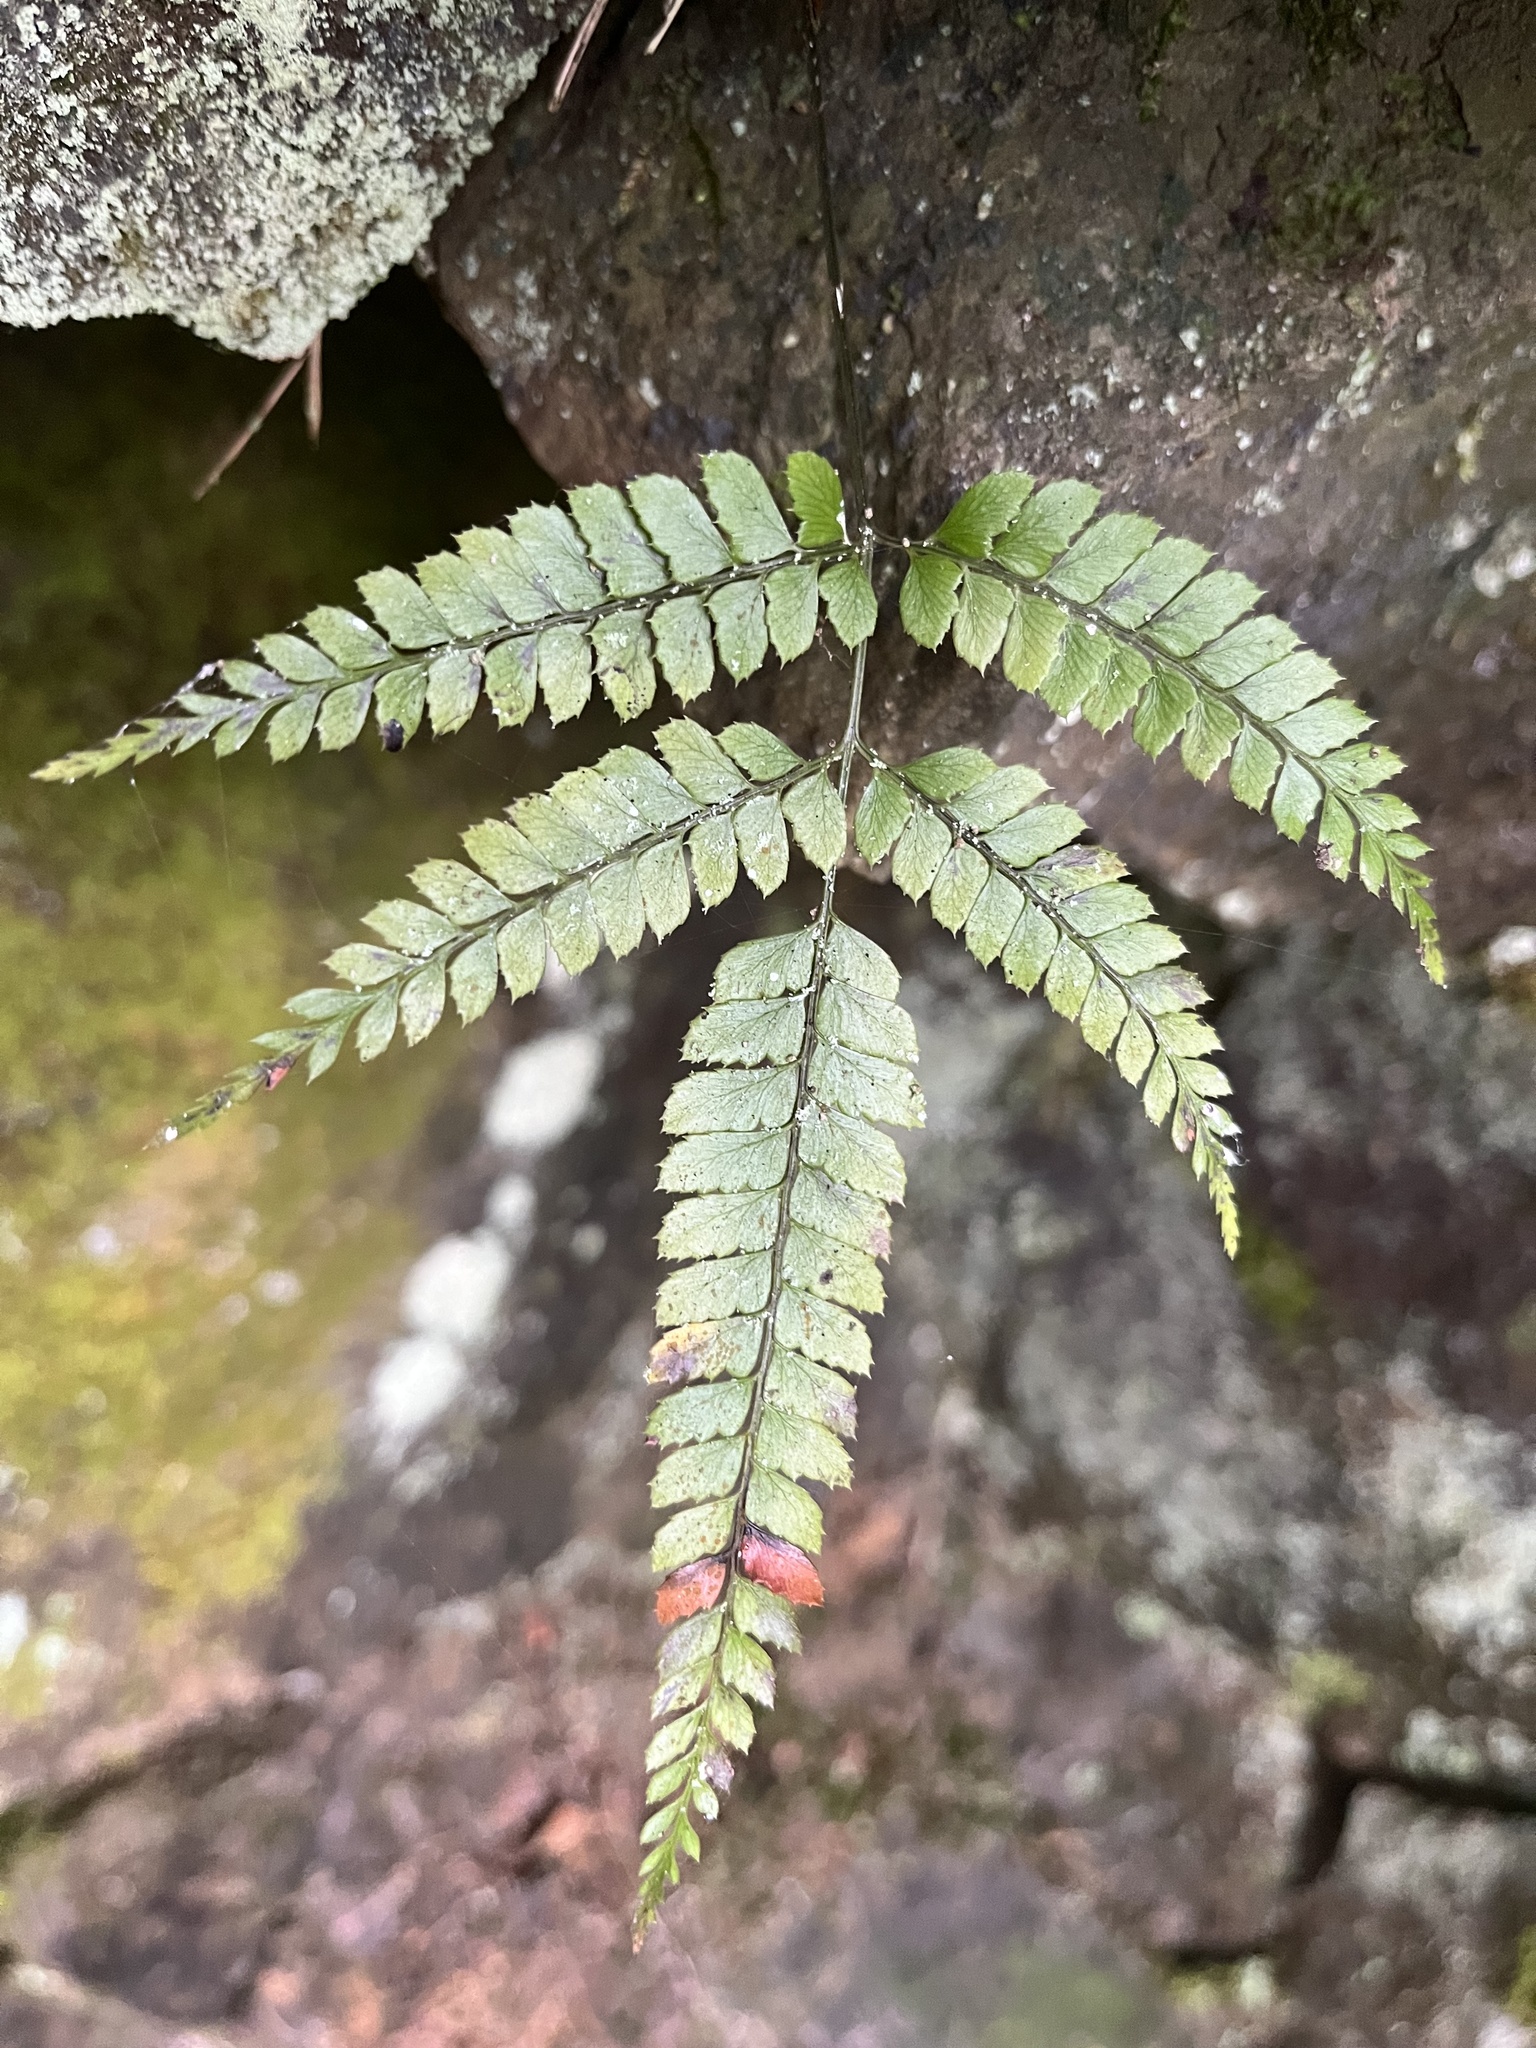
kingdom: Plantae
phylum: Tracheophyta
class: Polypodiopsida
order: Polypodiales
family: Dryopteridaceae
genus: Arachniodes
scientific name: Arachniodes amabilis
